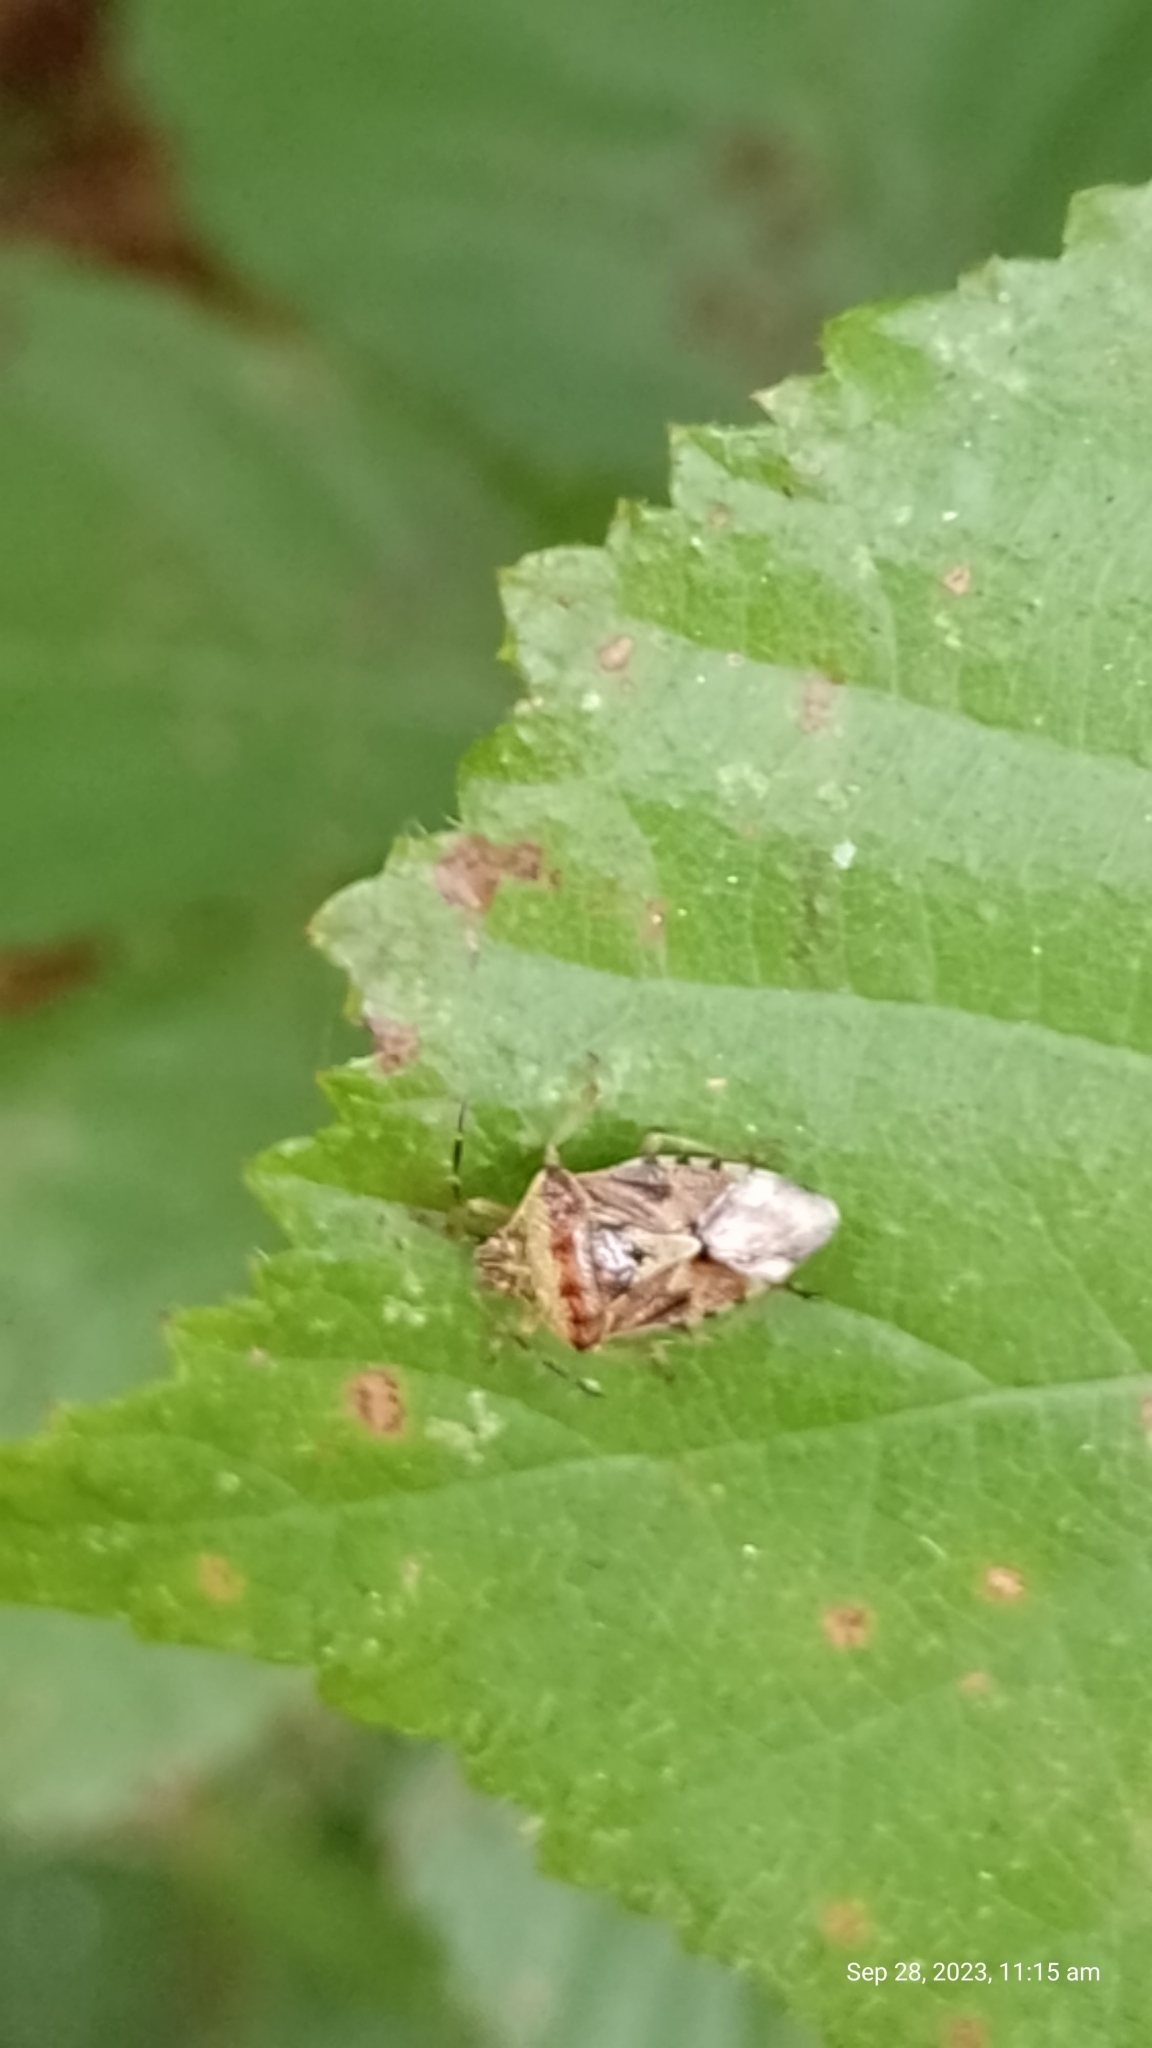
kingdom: Animalia
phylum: Arthropoda
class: Insecta
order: Hemiptera
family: Acanthosomatidae
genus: Elasmucha
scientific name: Elasmucha grisea
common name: Parent bug
